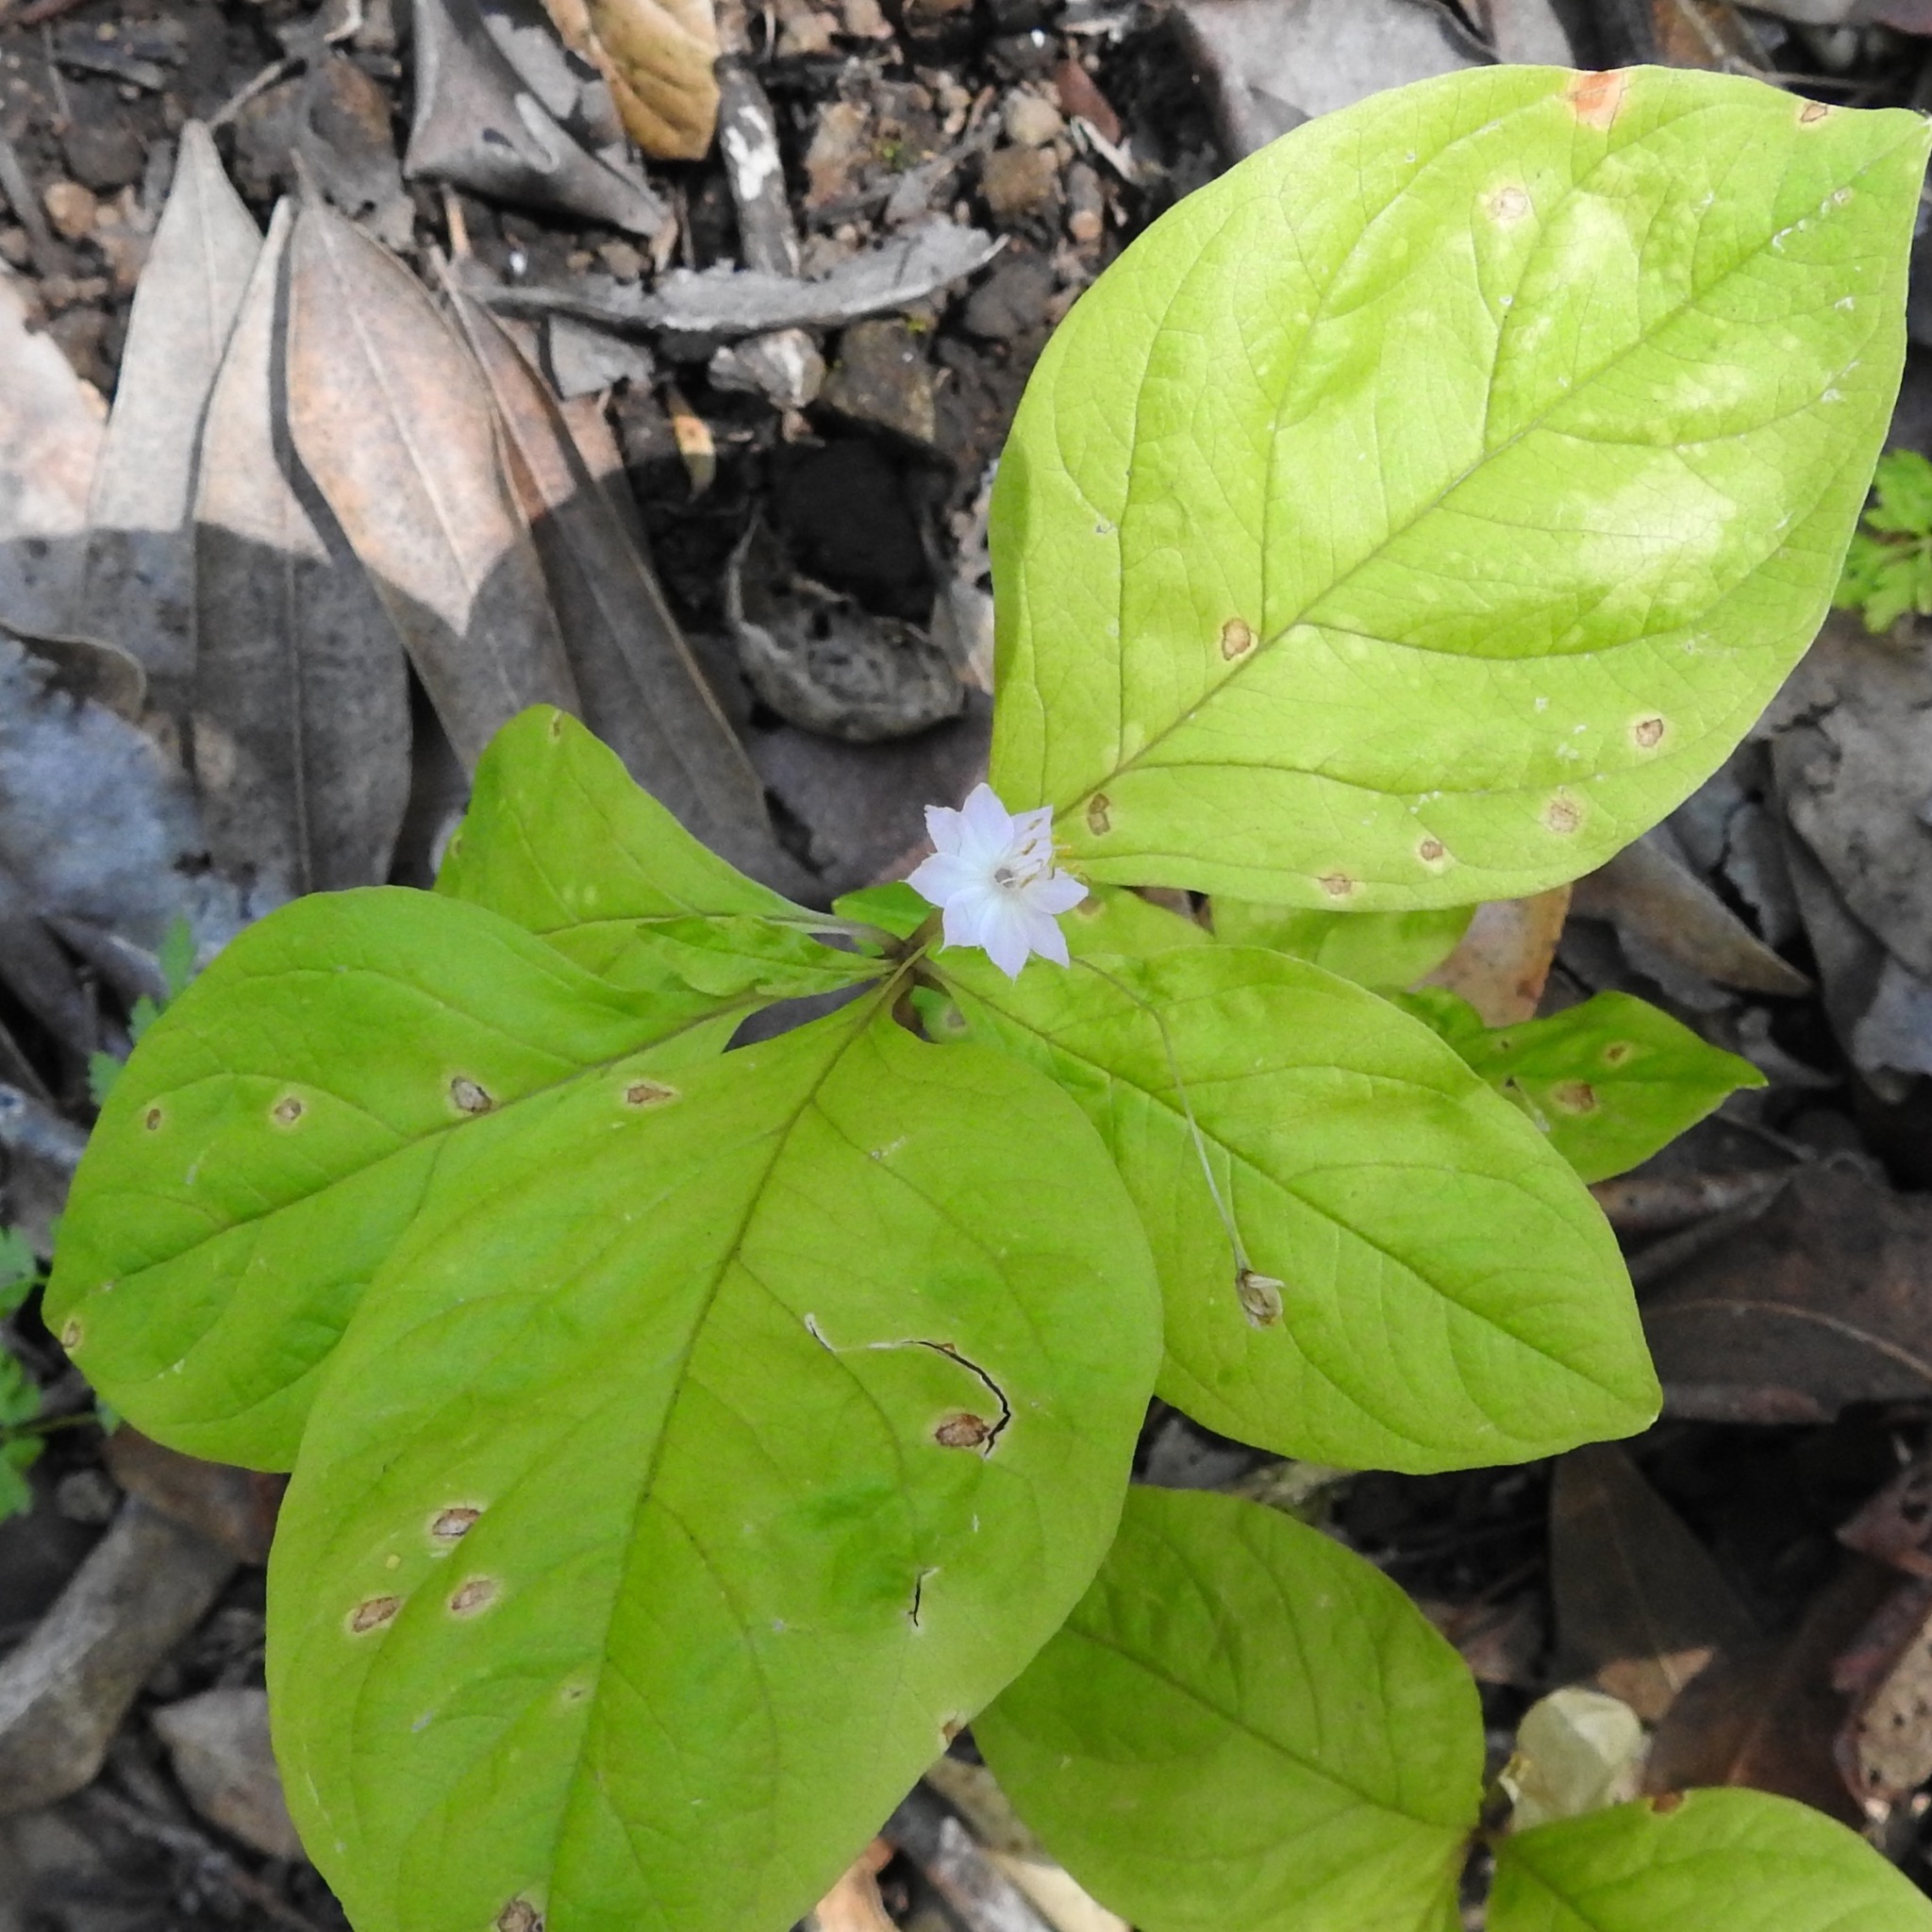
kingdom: Plantae
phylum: Tracheophyta
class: Magnoliopsida
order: Ericales
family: Primulaceae
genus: Lysimachia
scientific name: Lysimachia latifolia
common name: Pacific starflower
